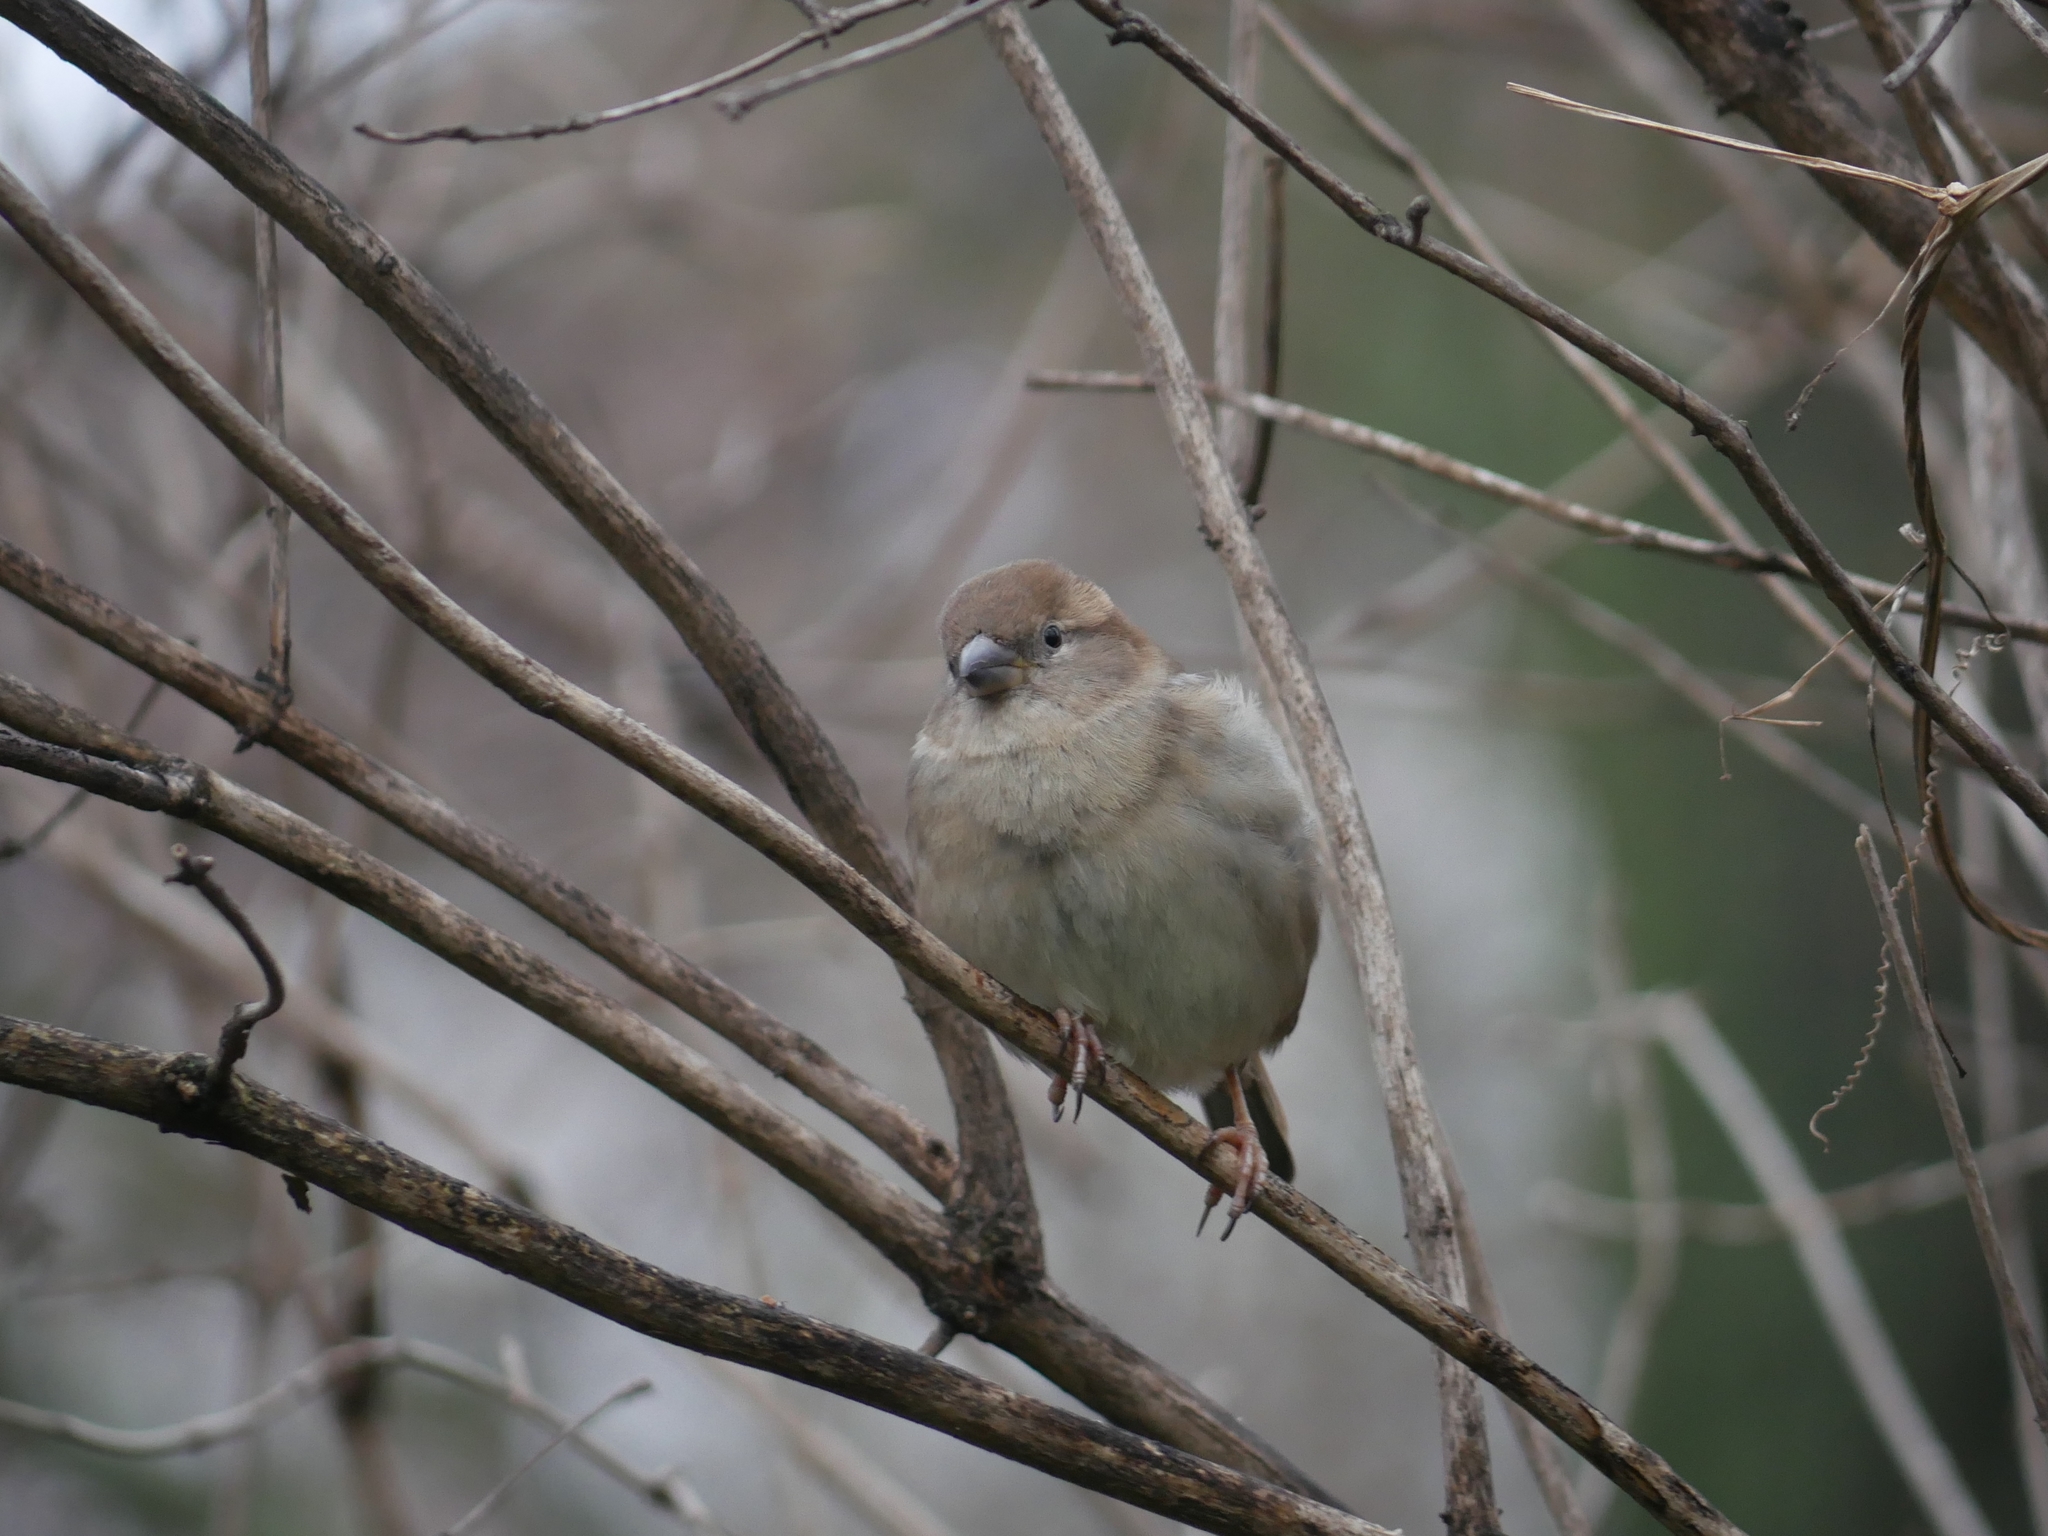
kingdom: Animalia
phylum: Chordata
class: Aves
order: Passeriformes
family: Passeridae
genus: Passer
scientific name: Passer domesticus
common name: House sparrow
